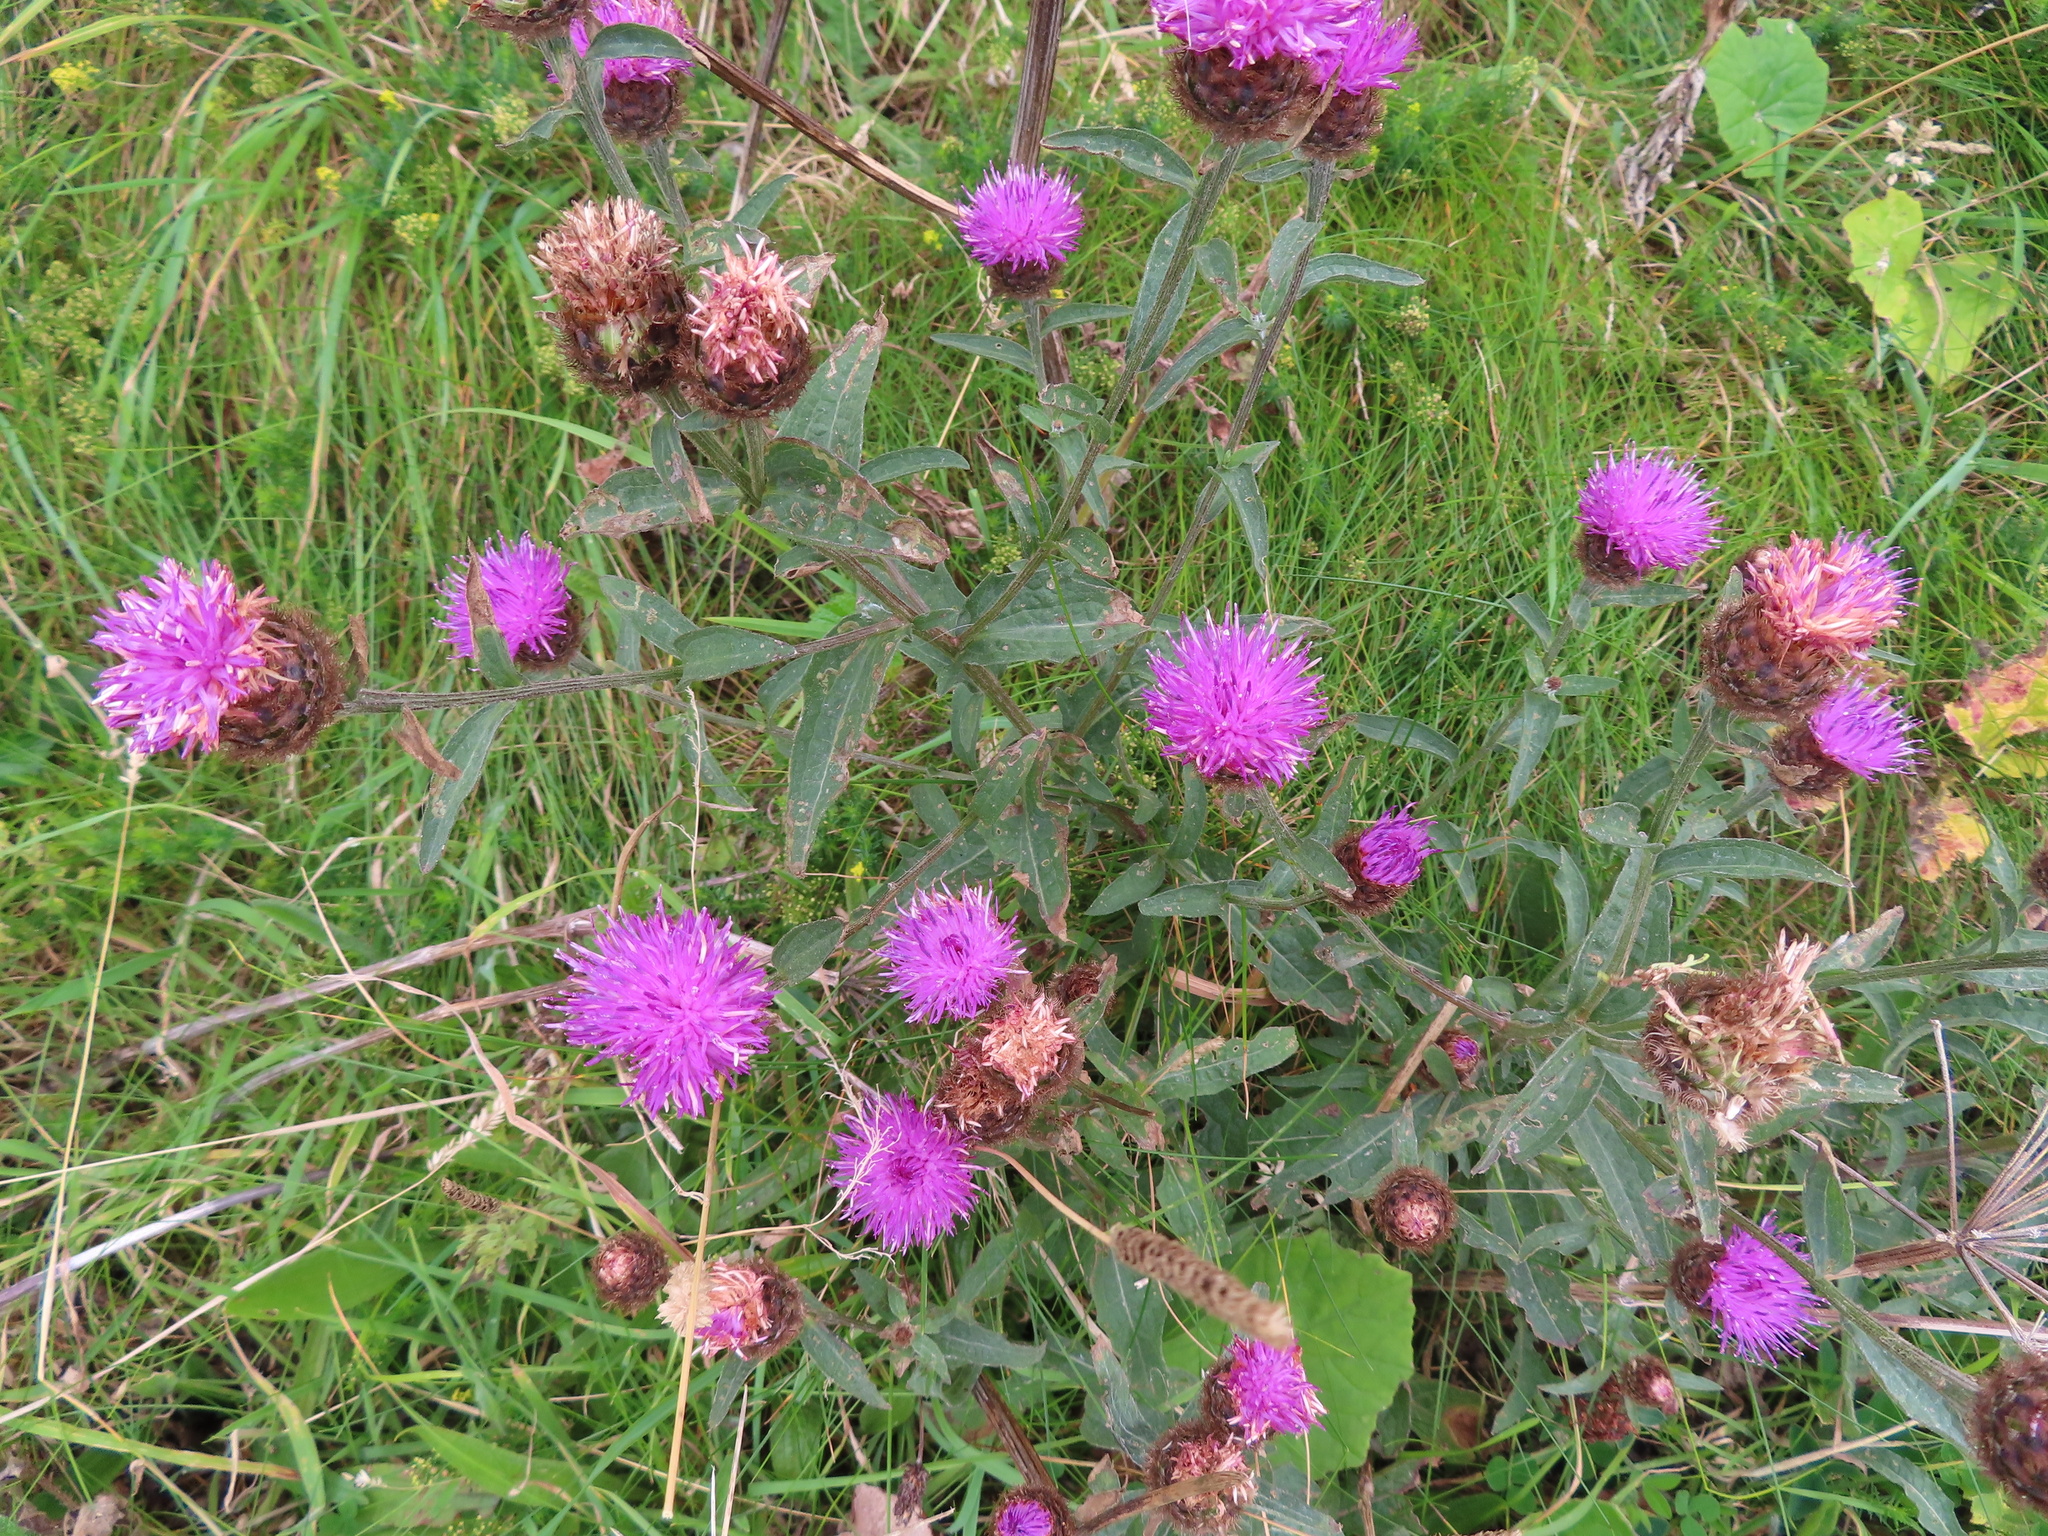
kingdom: Plantae
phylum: Tracheophyta
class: Magnoliopsida
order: Asterales
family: Asteraceae
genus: Centaurea
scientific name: Centaurea nigra
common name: Lesser knapweed
